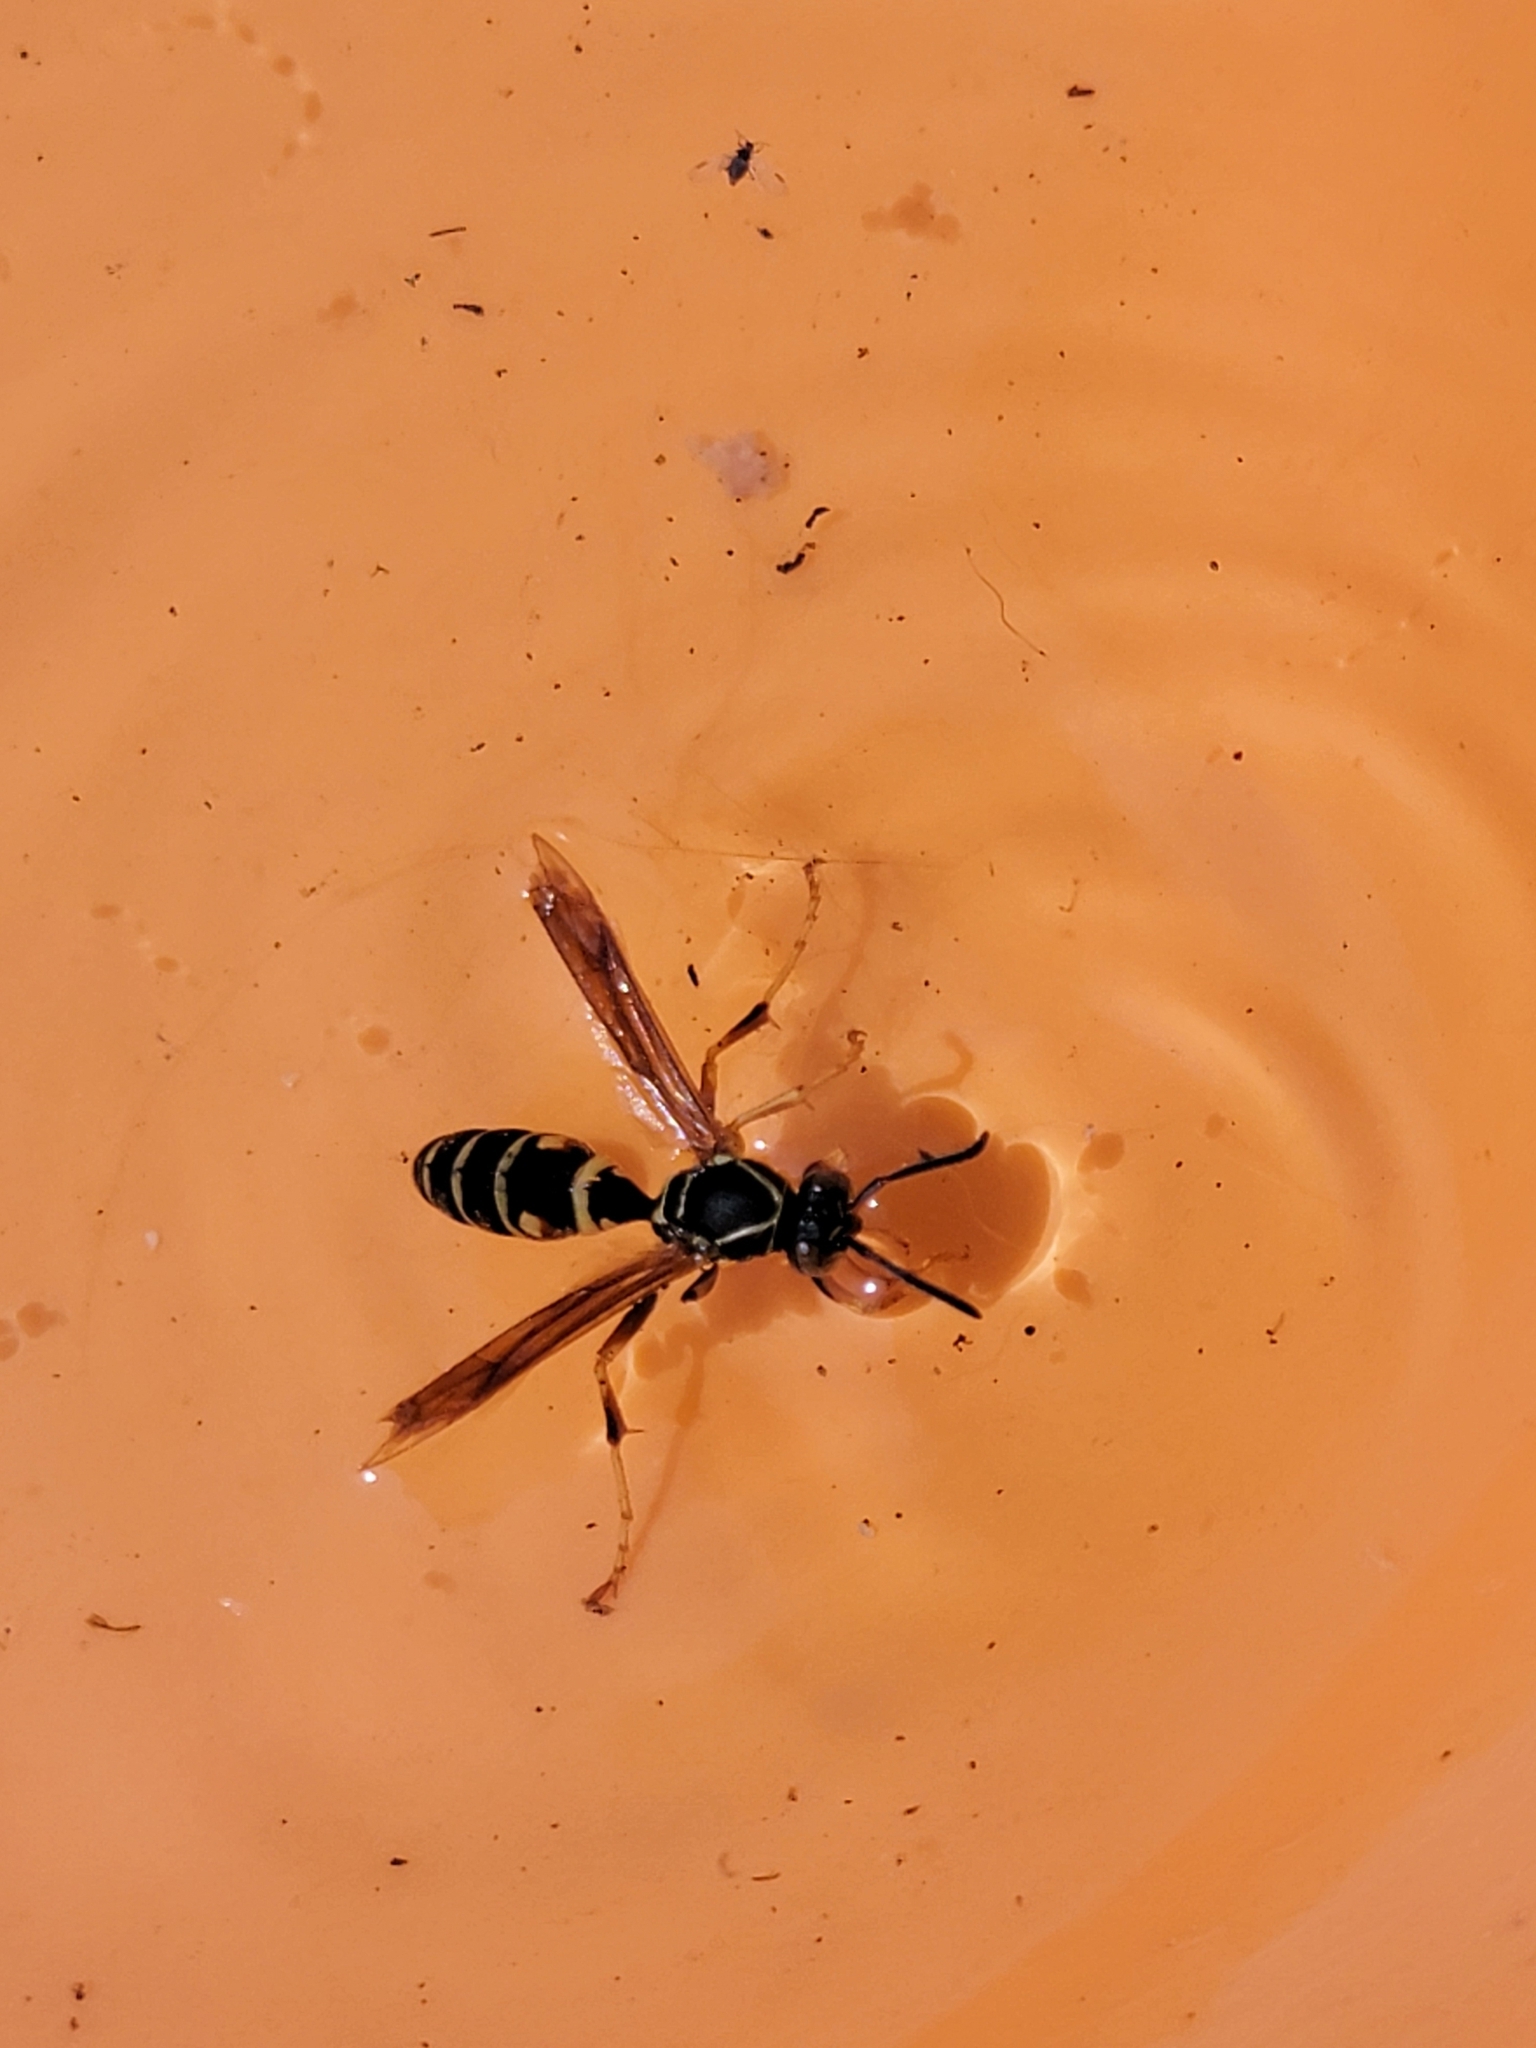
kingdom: Animalia
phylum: Arthropoda
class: Insecta
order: Hymenoptera
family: Eumenidae
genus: Polistes
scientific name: Polistes fuscatus
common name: Dark paper wasp
